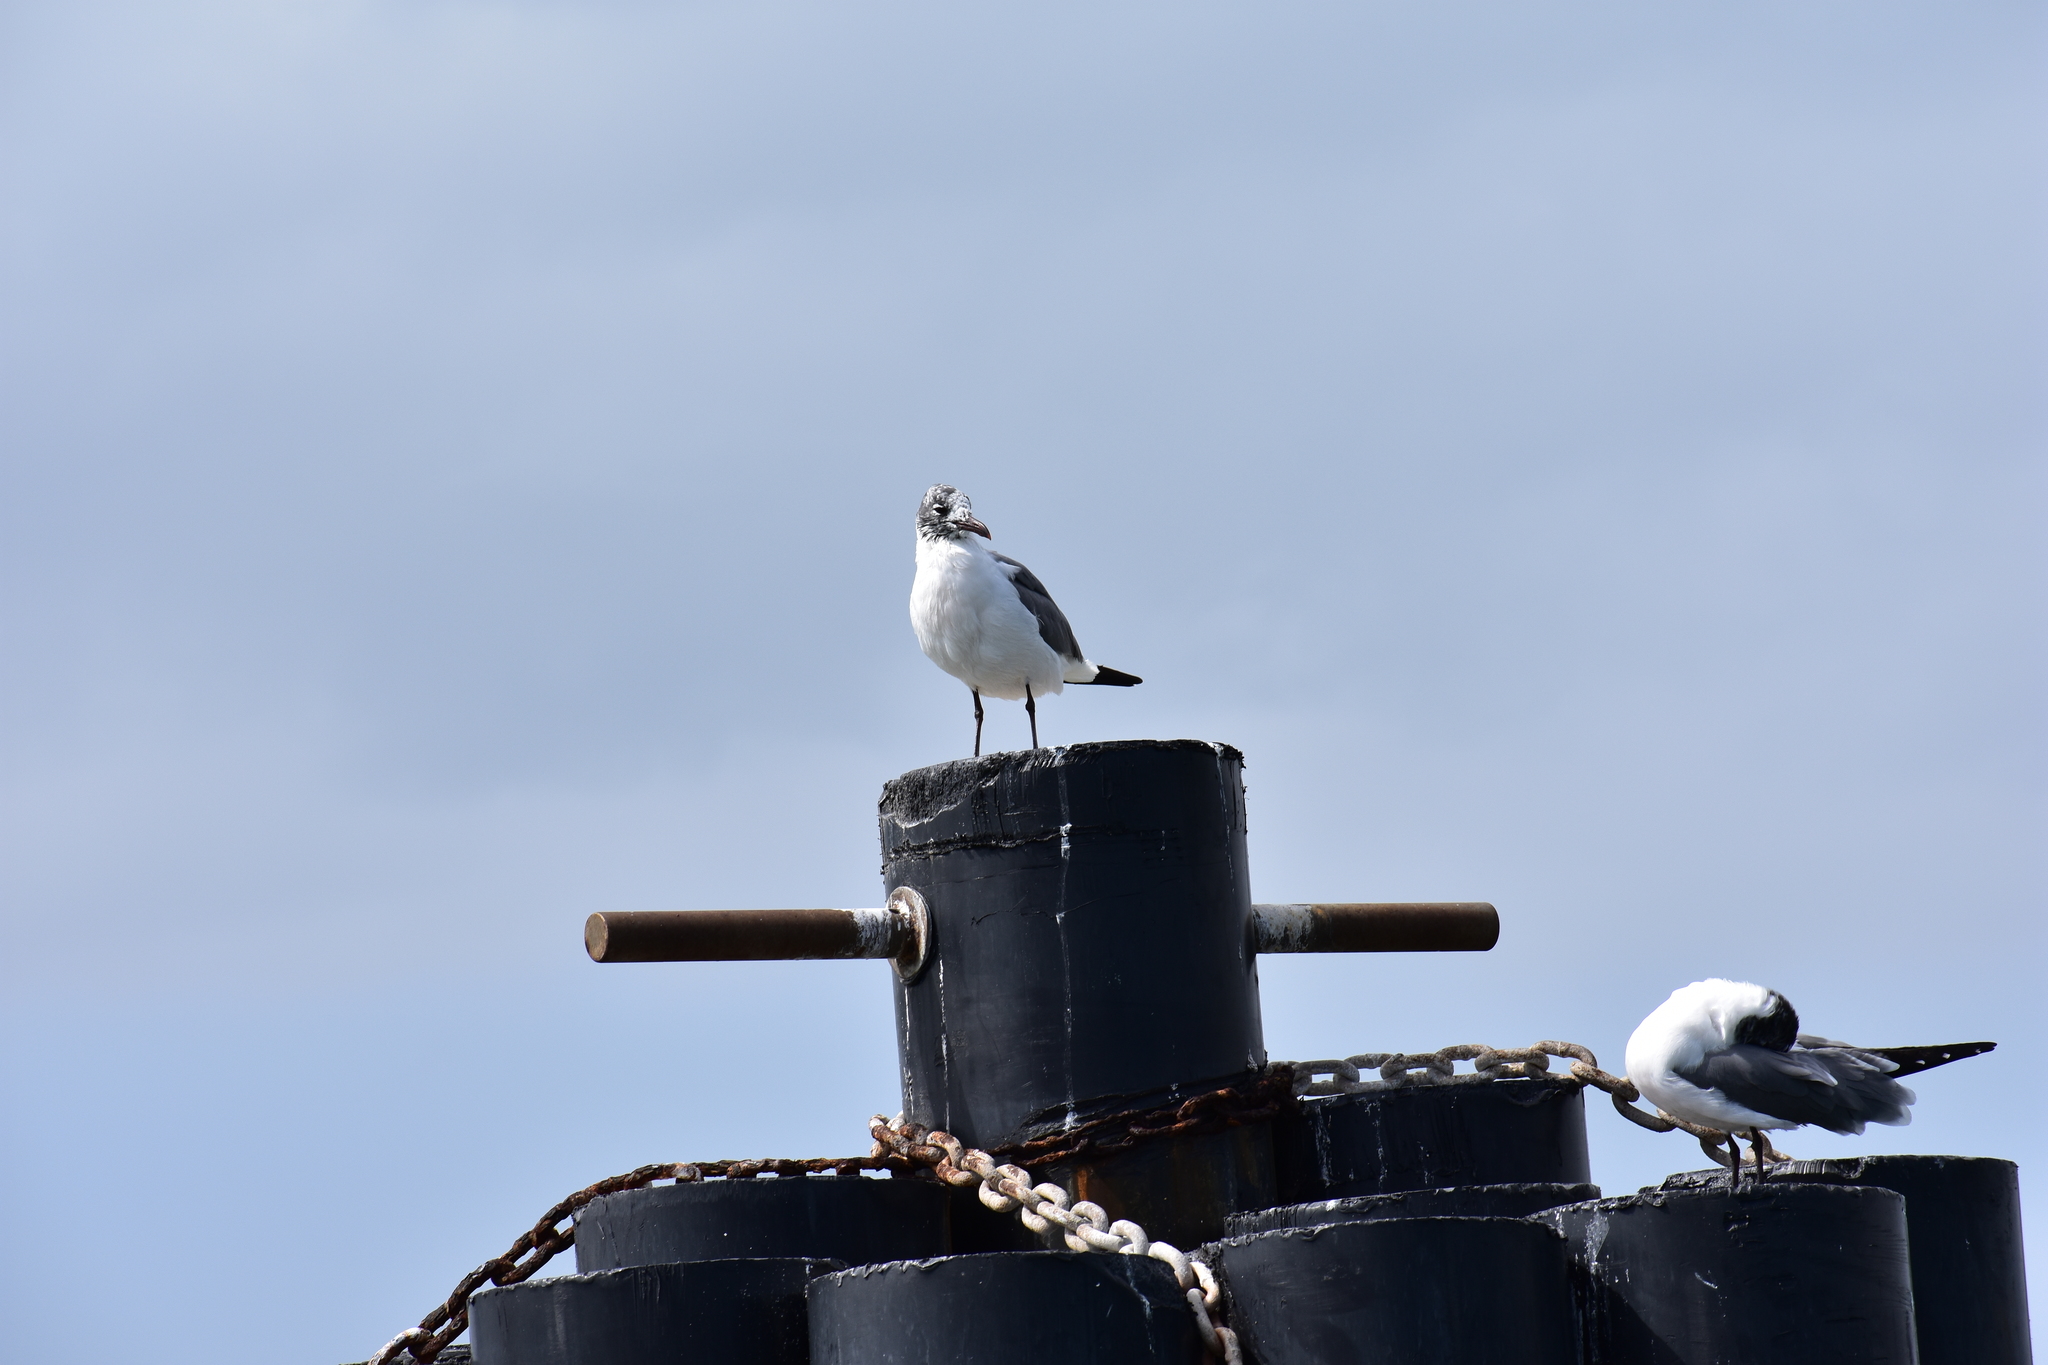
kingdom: Animalia
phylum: Chordata
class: Aves
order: Charadriiformes
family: Laridae
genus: Leucophaeus
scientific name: Leucophaeus atricilla
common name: Laughing gull
